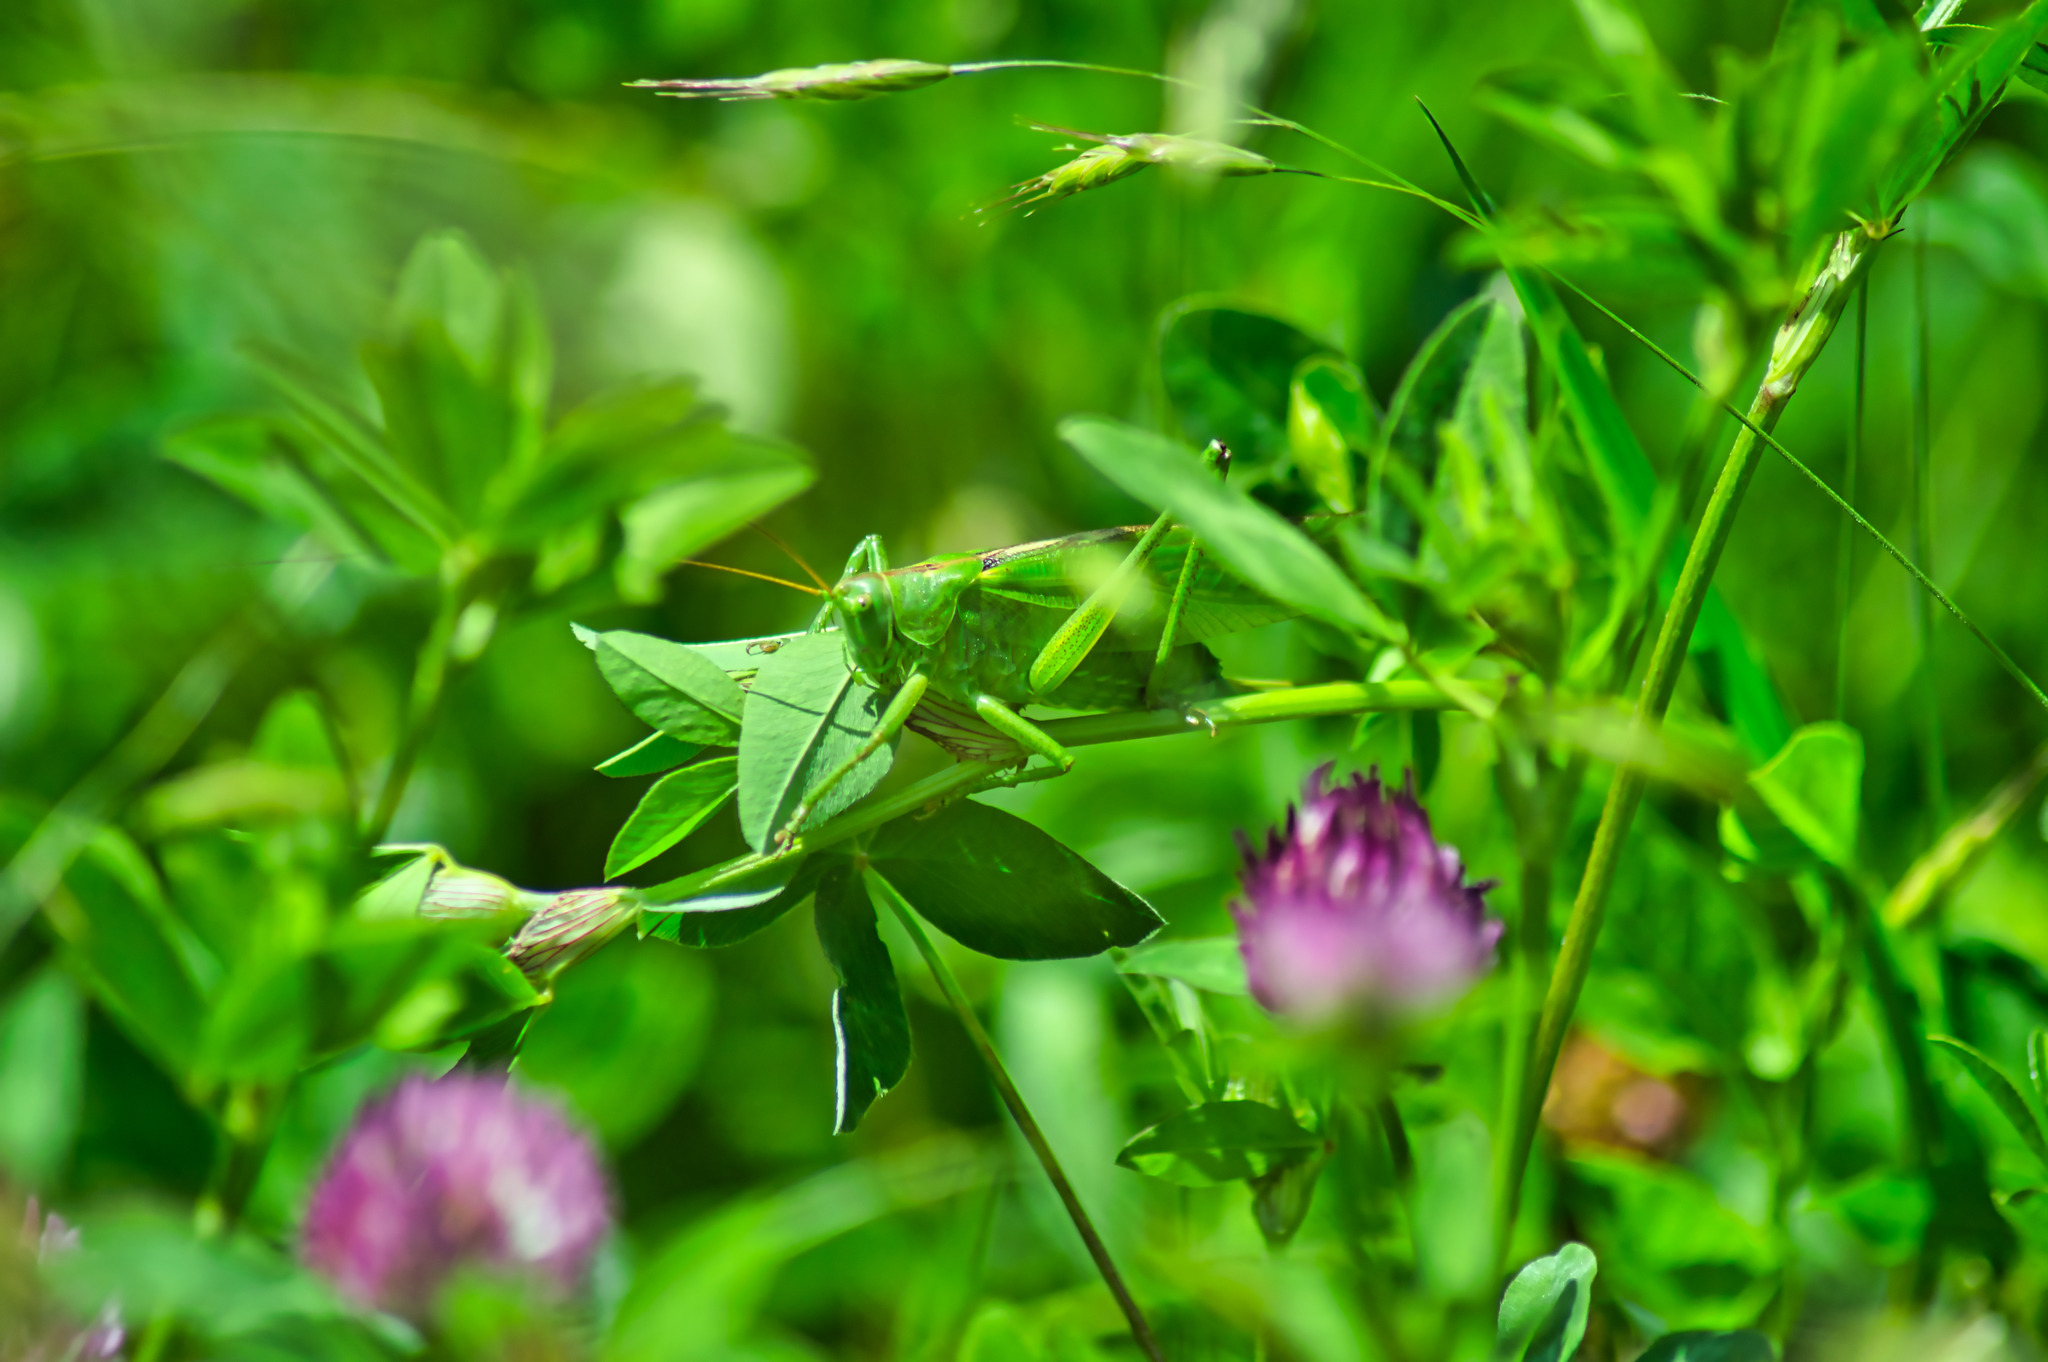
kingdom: Animalia
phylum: Arthropoda
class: Insecta
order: Orthoptera
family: Tettigoniidae
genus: Tettigonia
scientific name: Tettigonia viridissima
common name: Great green bush-cricket
